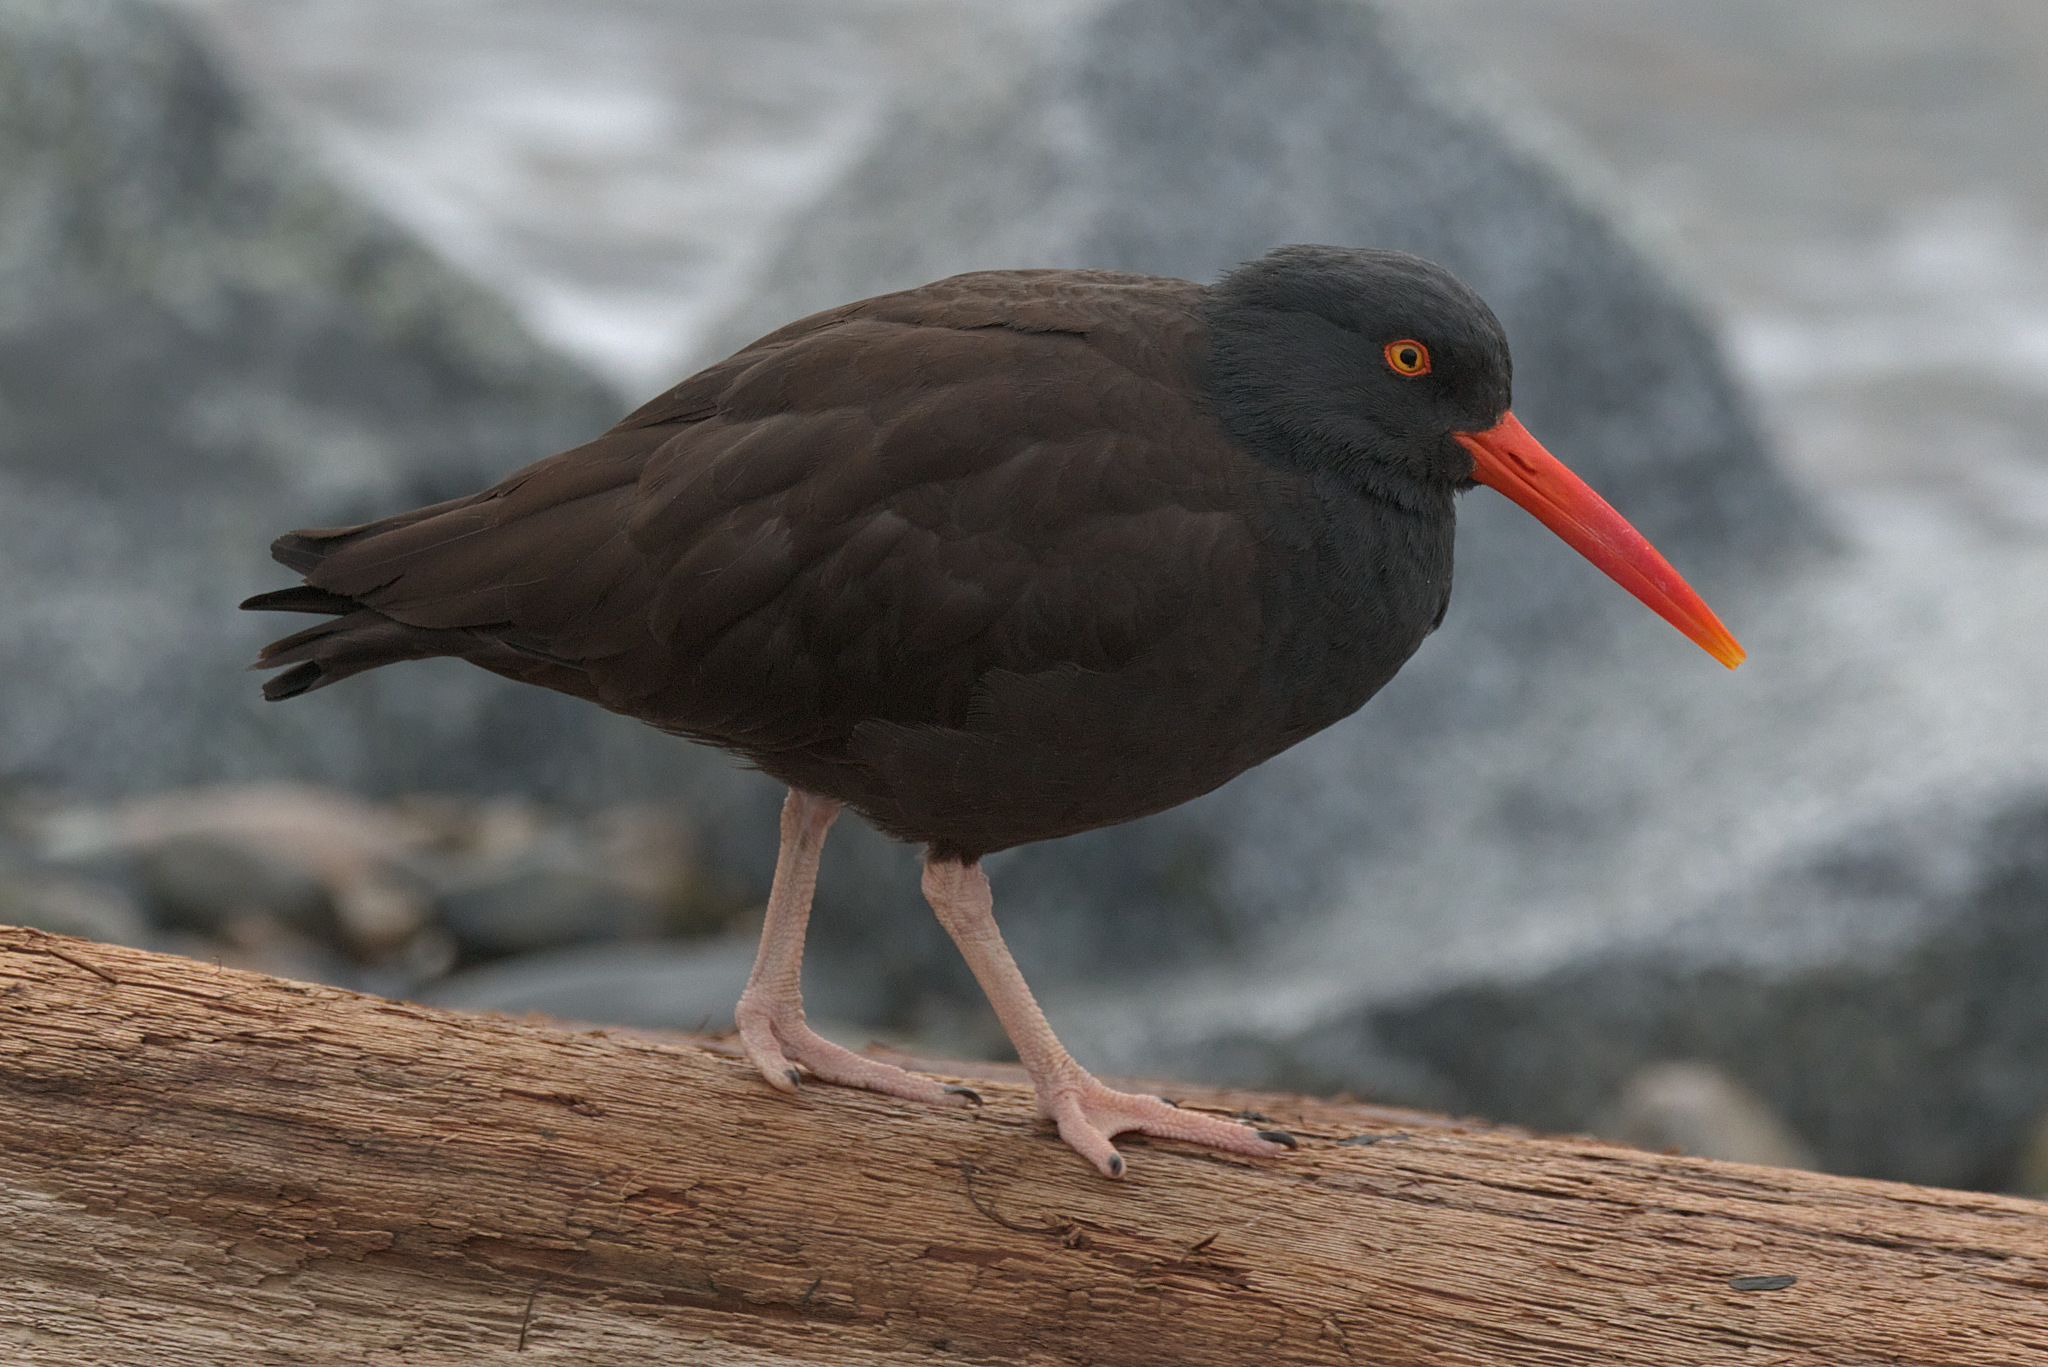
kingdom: Animalia
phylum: Chordata
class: Aves
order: Charadriiformes
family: Haematopodidae
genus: Haematopus
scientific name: Haematopus bachmani
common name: Black oystercatcher
